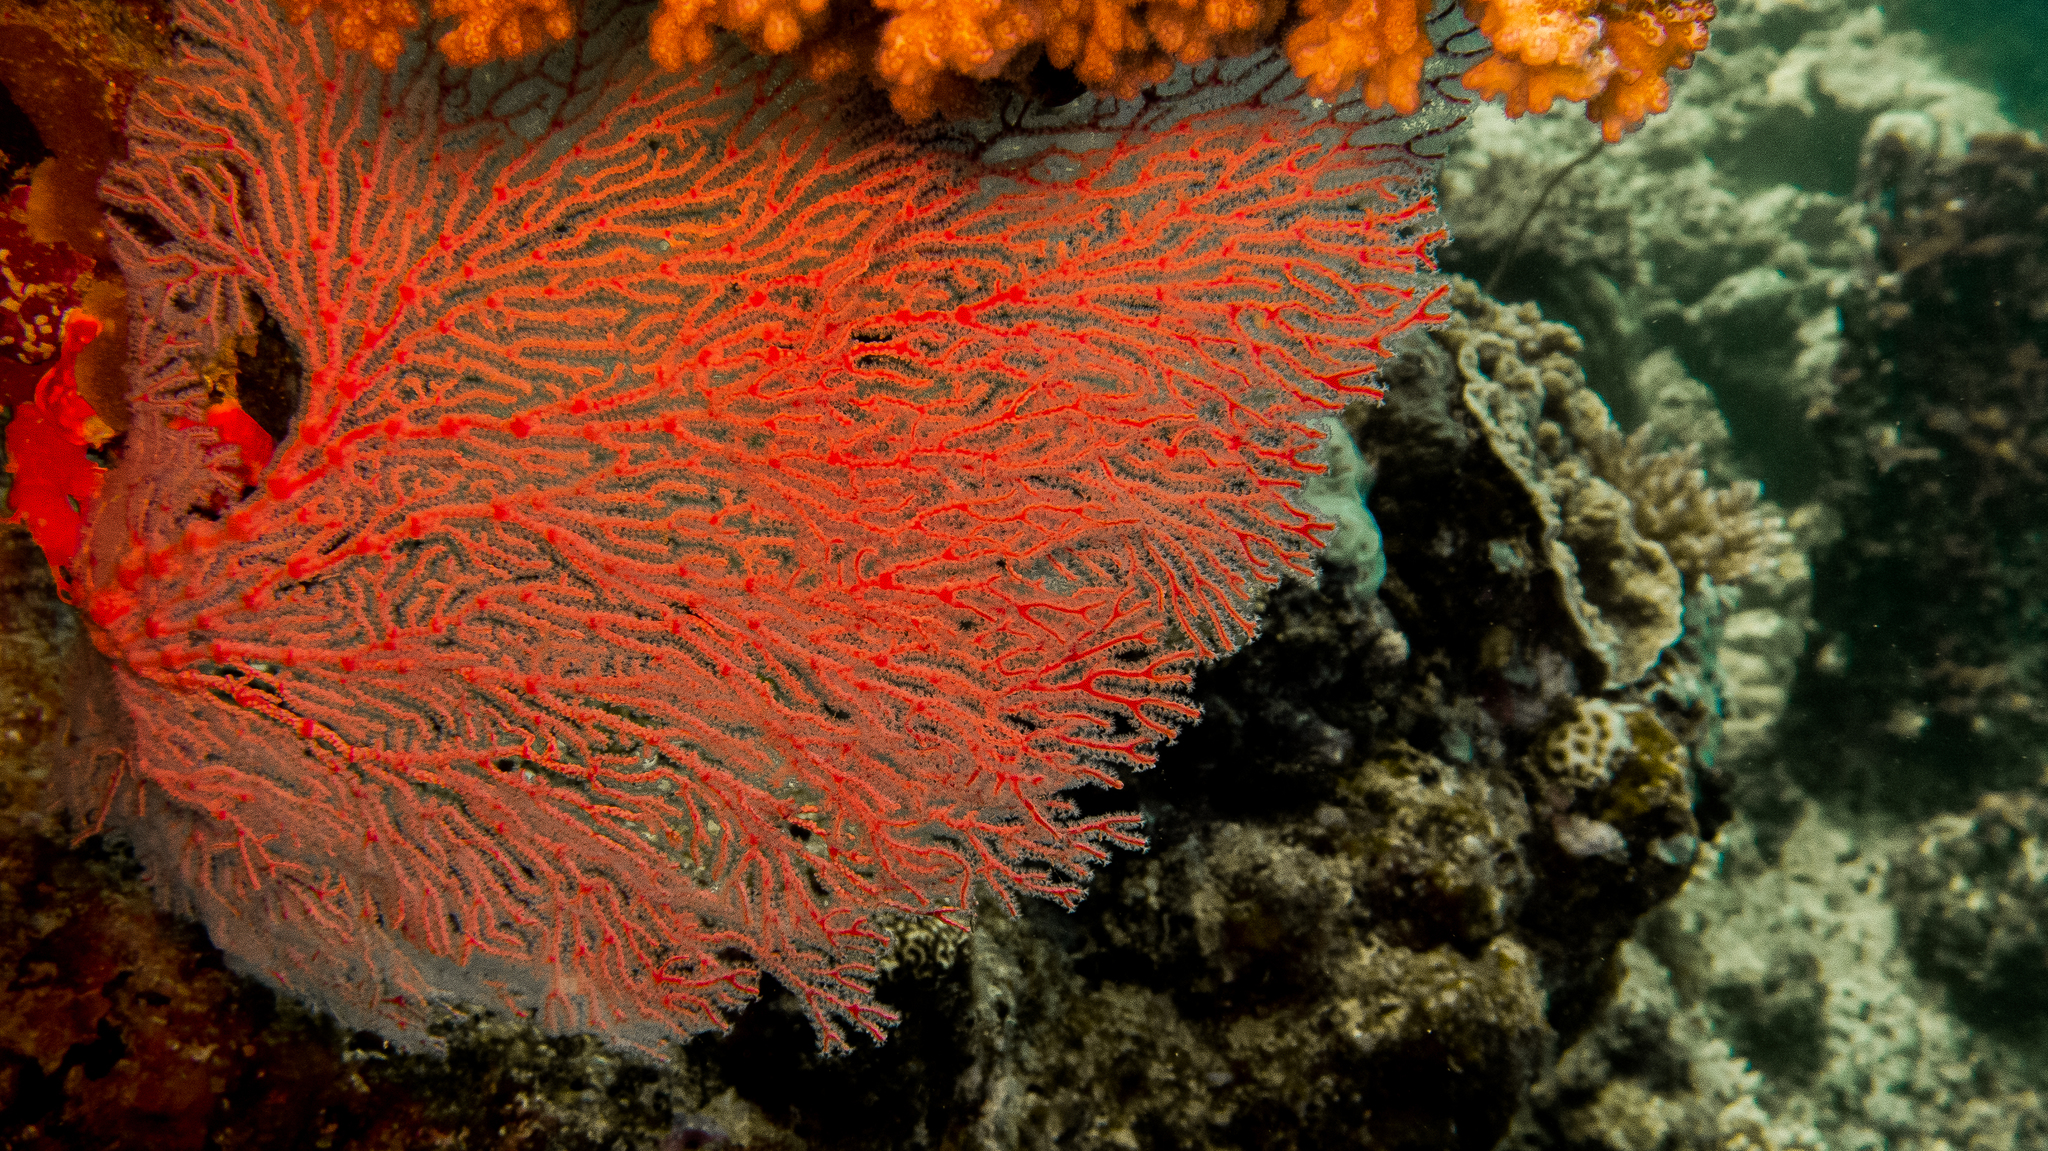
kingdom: Animalia
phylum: Cnidaria
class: Anthozoa
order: Malacalcyonacea
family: Melithaeidae
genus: Melithaea
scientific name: Melithaea ochracea
